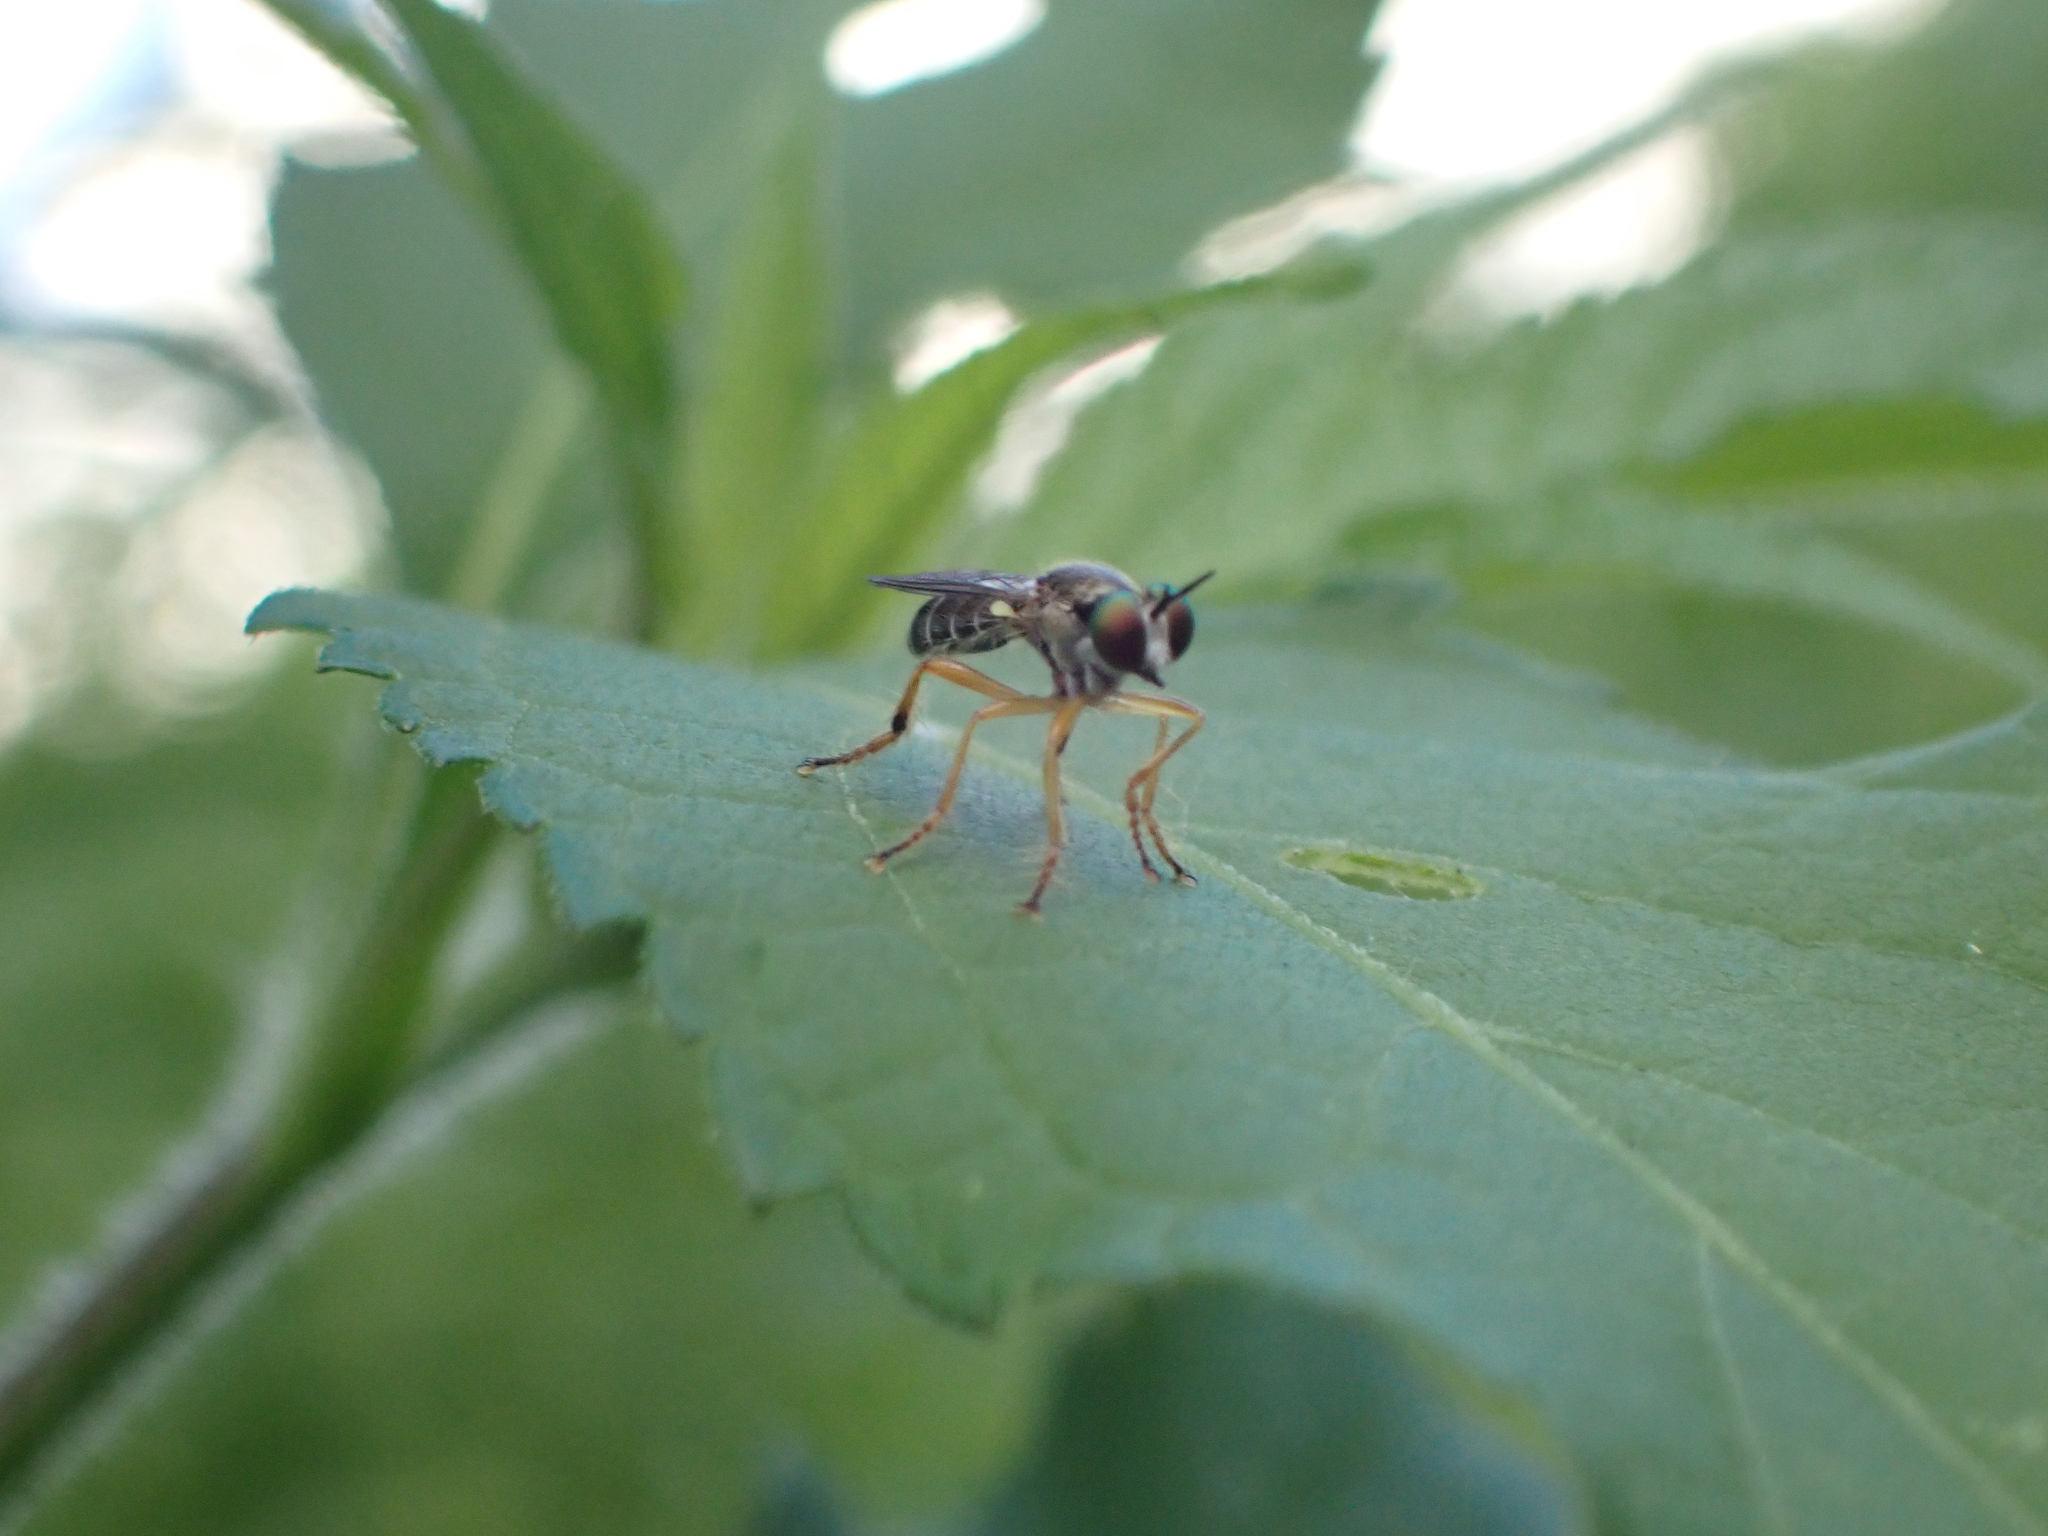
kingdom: Animalia
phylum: Arthropoda
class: Insecta
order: Diptera
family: Asilidae
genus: Atomosia
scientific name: Atomosia rufipes
